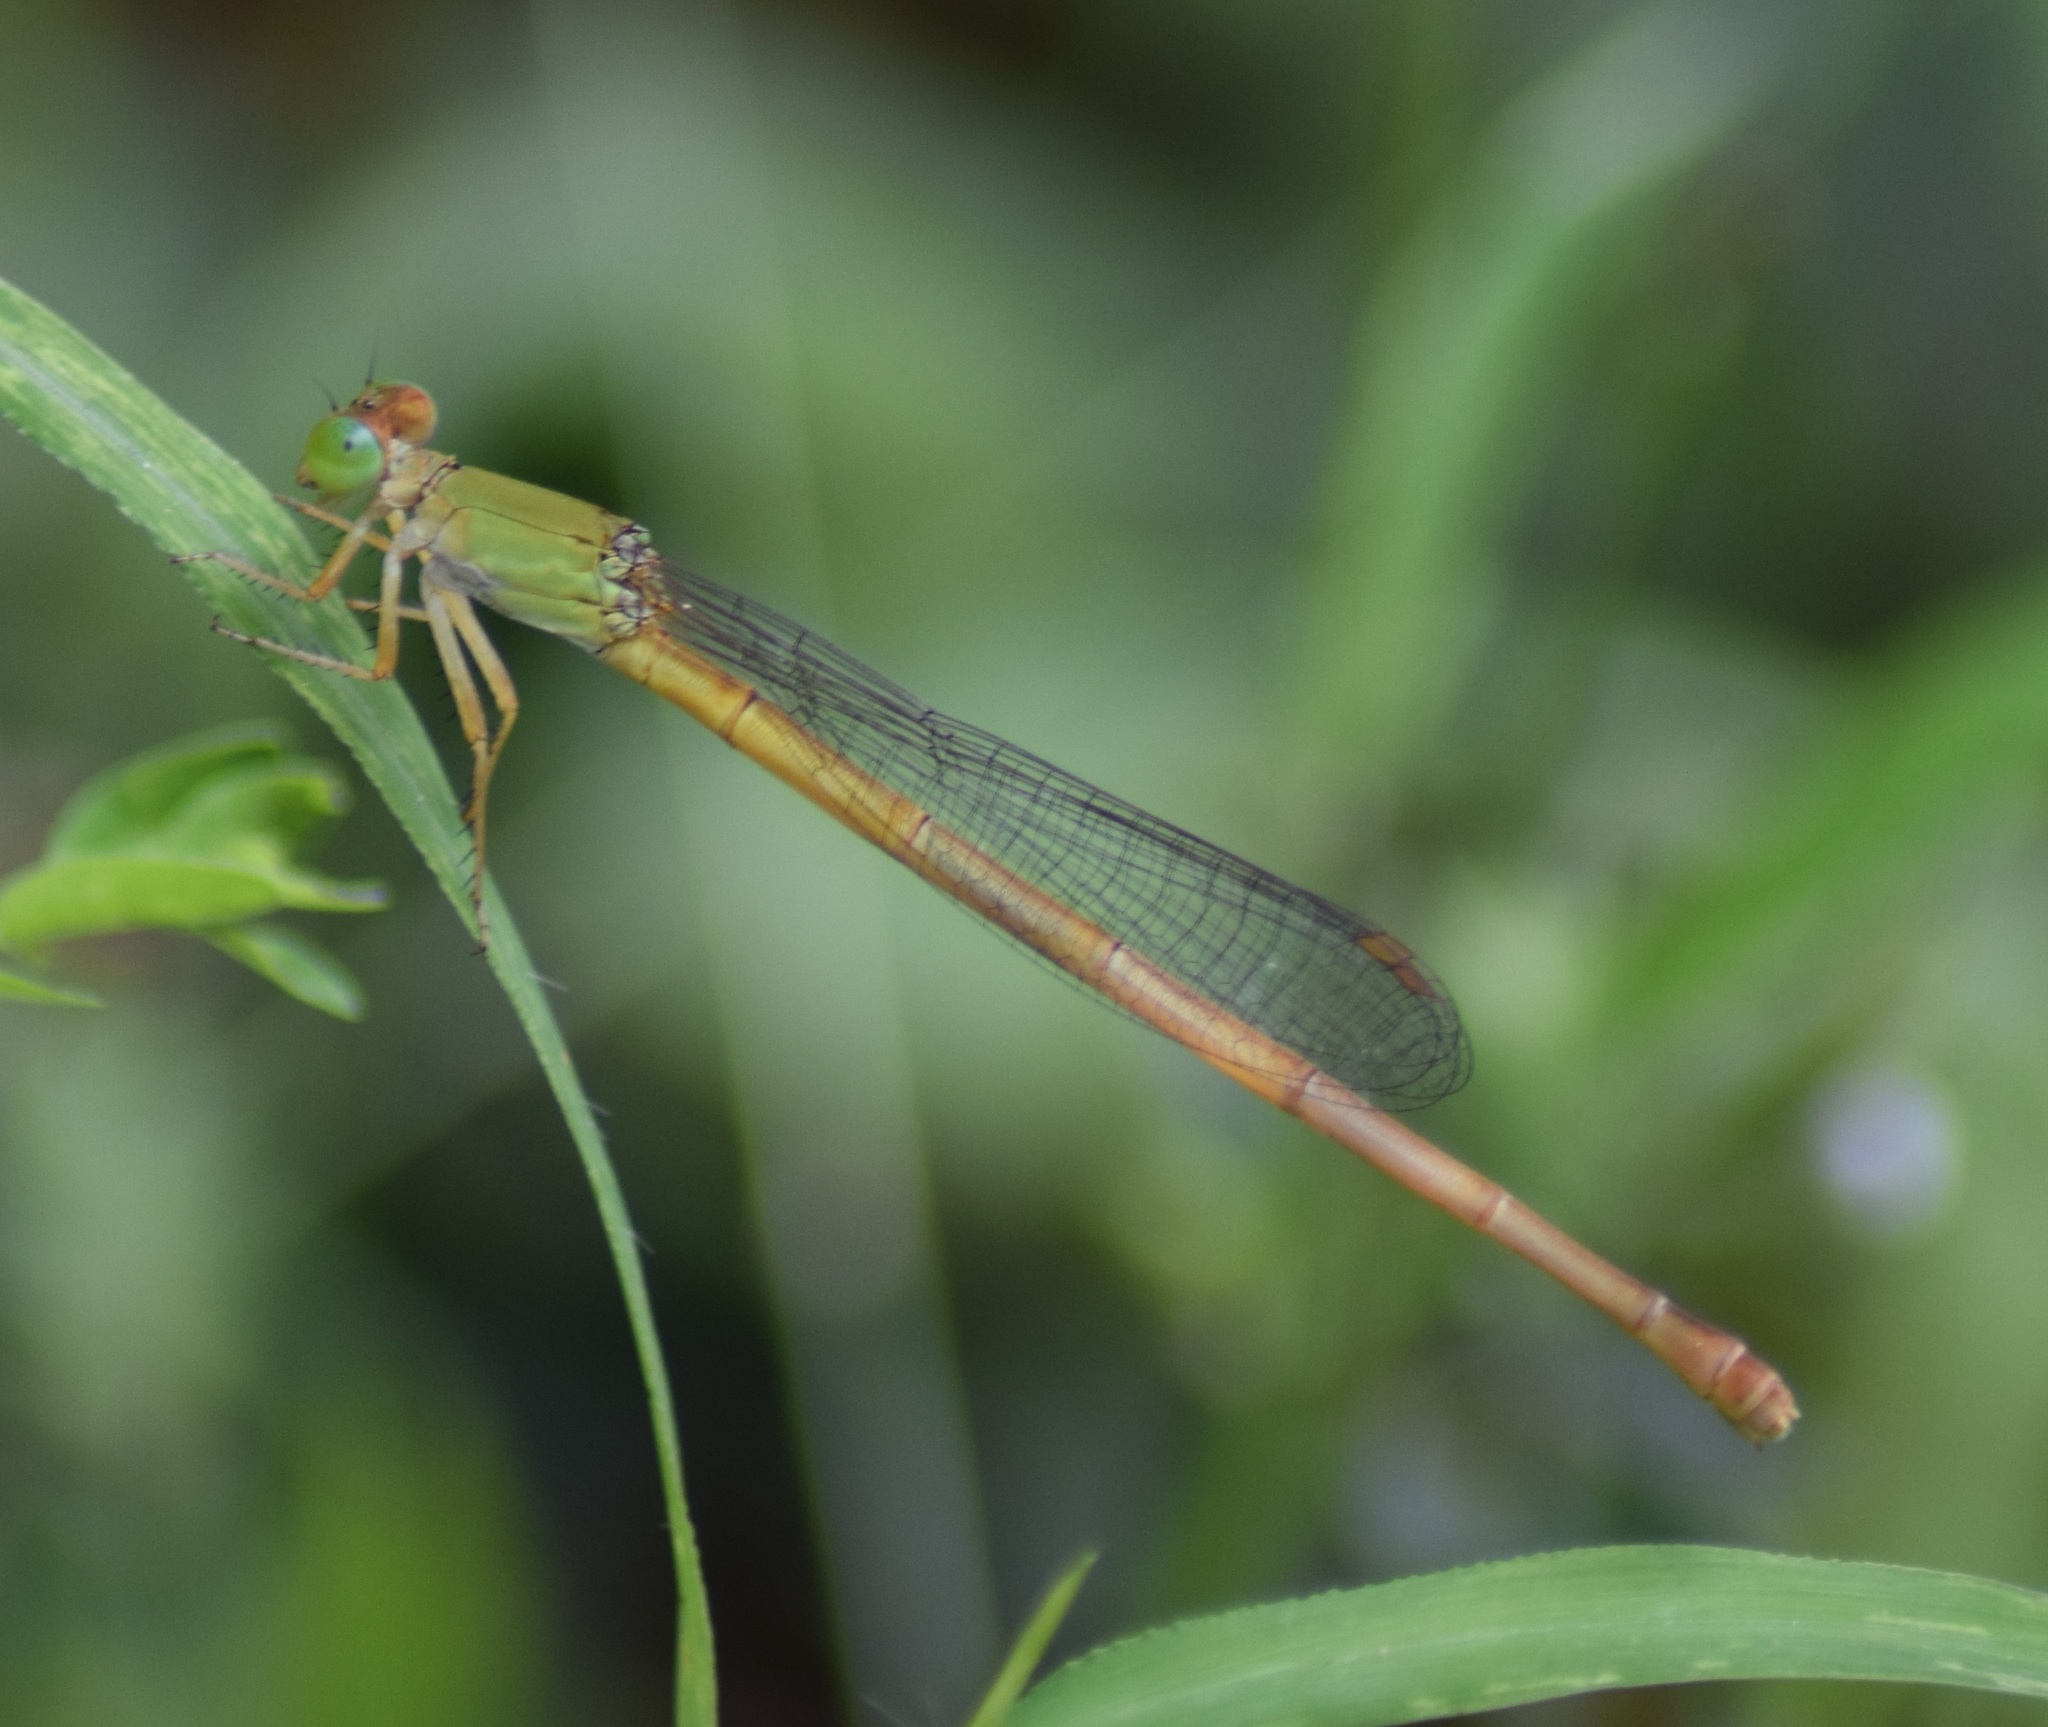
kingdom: Animalia
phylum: Arthropoda
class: Insecta
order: Odonata
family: Coenagrionidae
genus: Ceriagrion
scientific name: Ceriagrion coromandelianum
